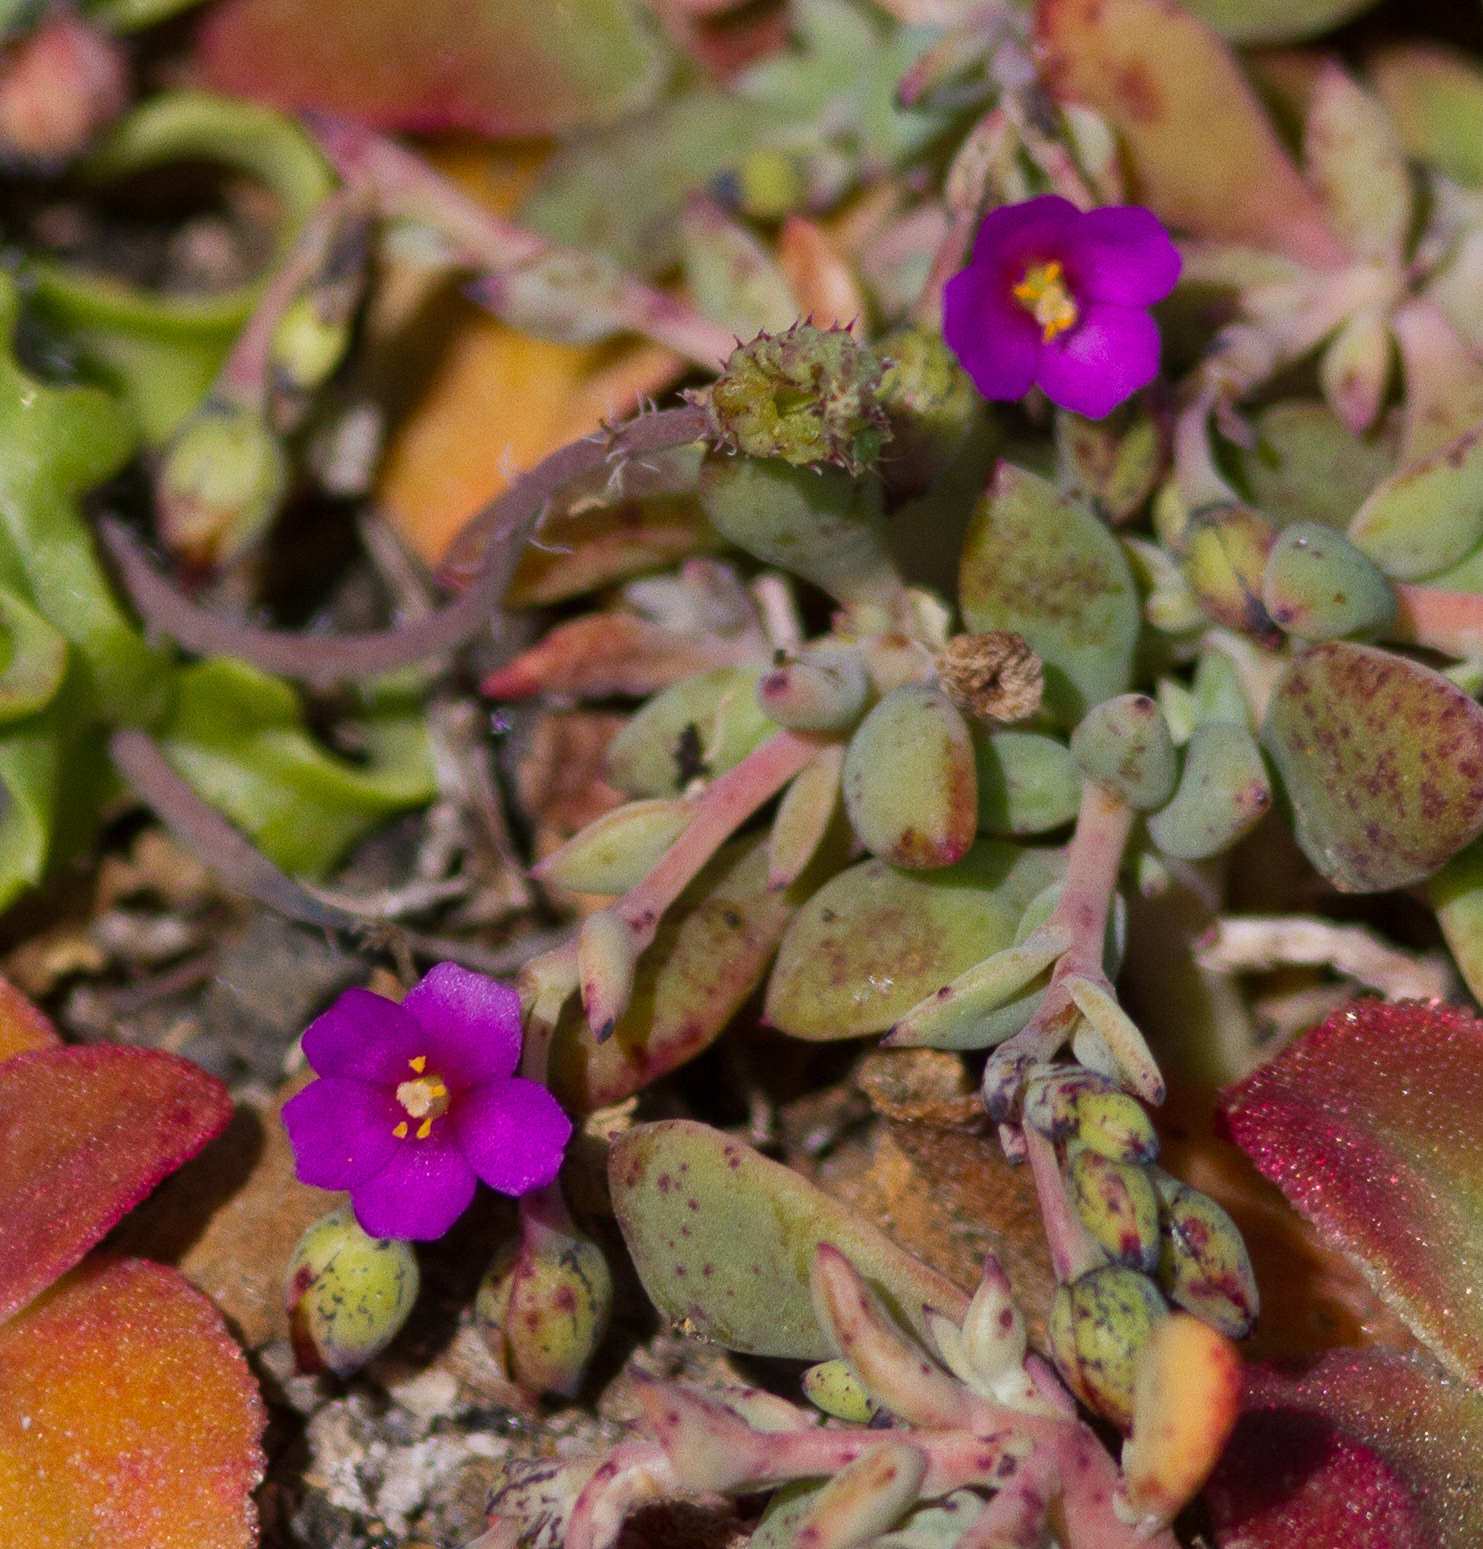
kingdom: Plantae
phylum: Tracheophyta
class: Magnoliopsida
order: Caryophyllales
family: Montiaceae
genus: Cistanthe
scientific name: Cistanthe maritima
